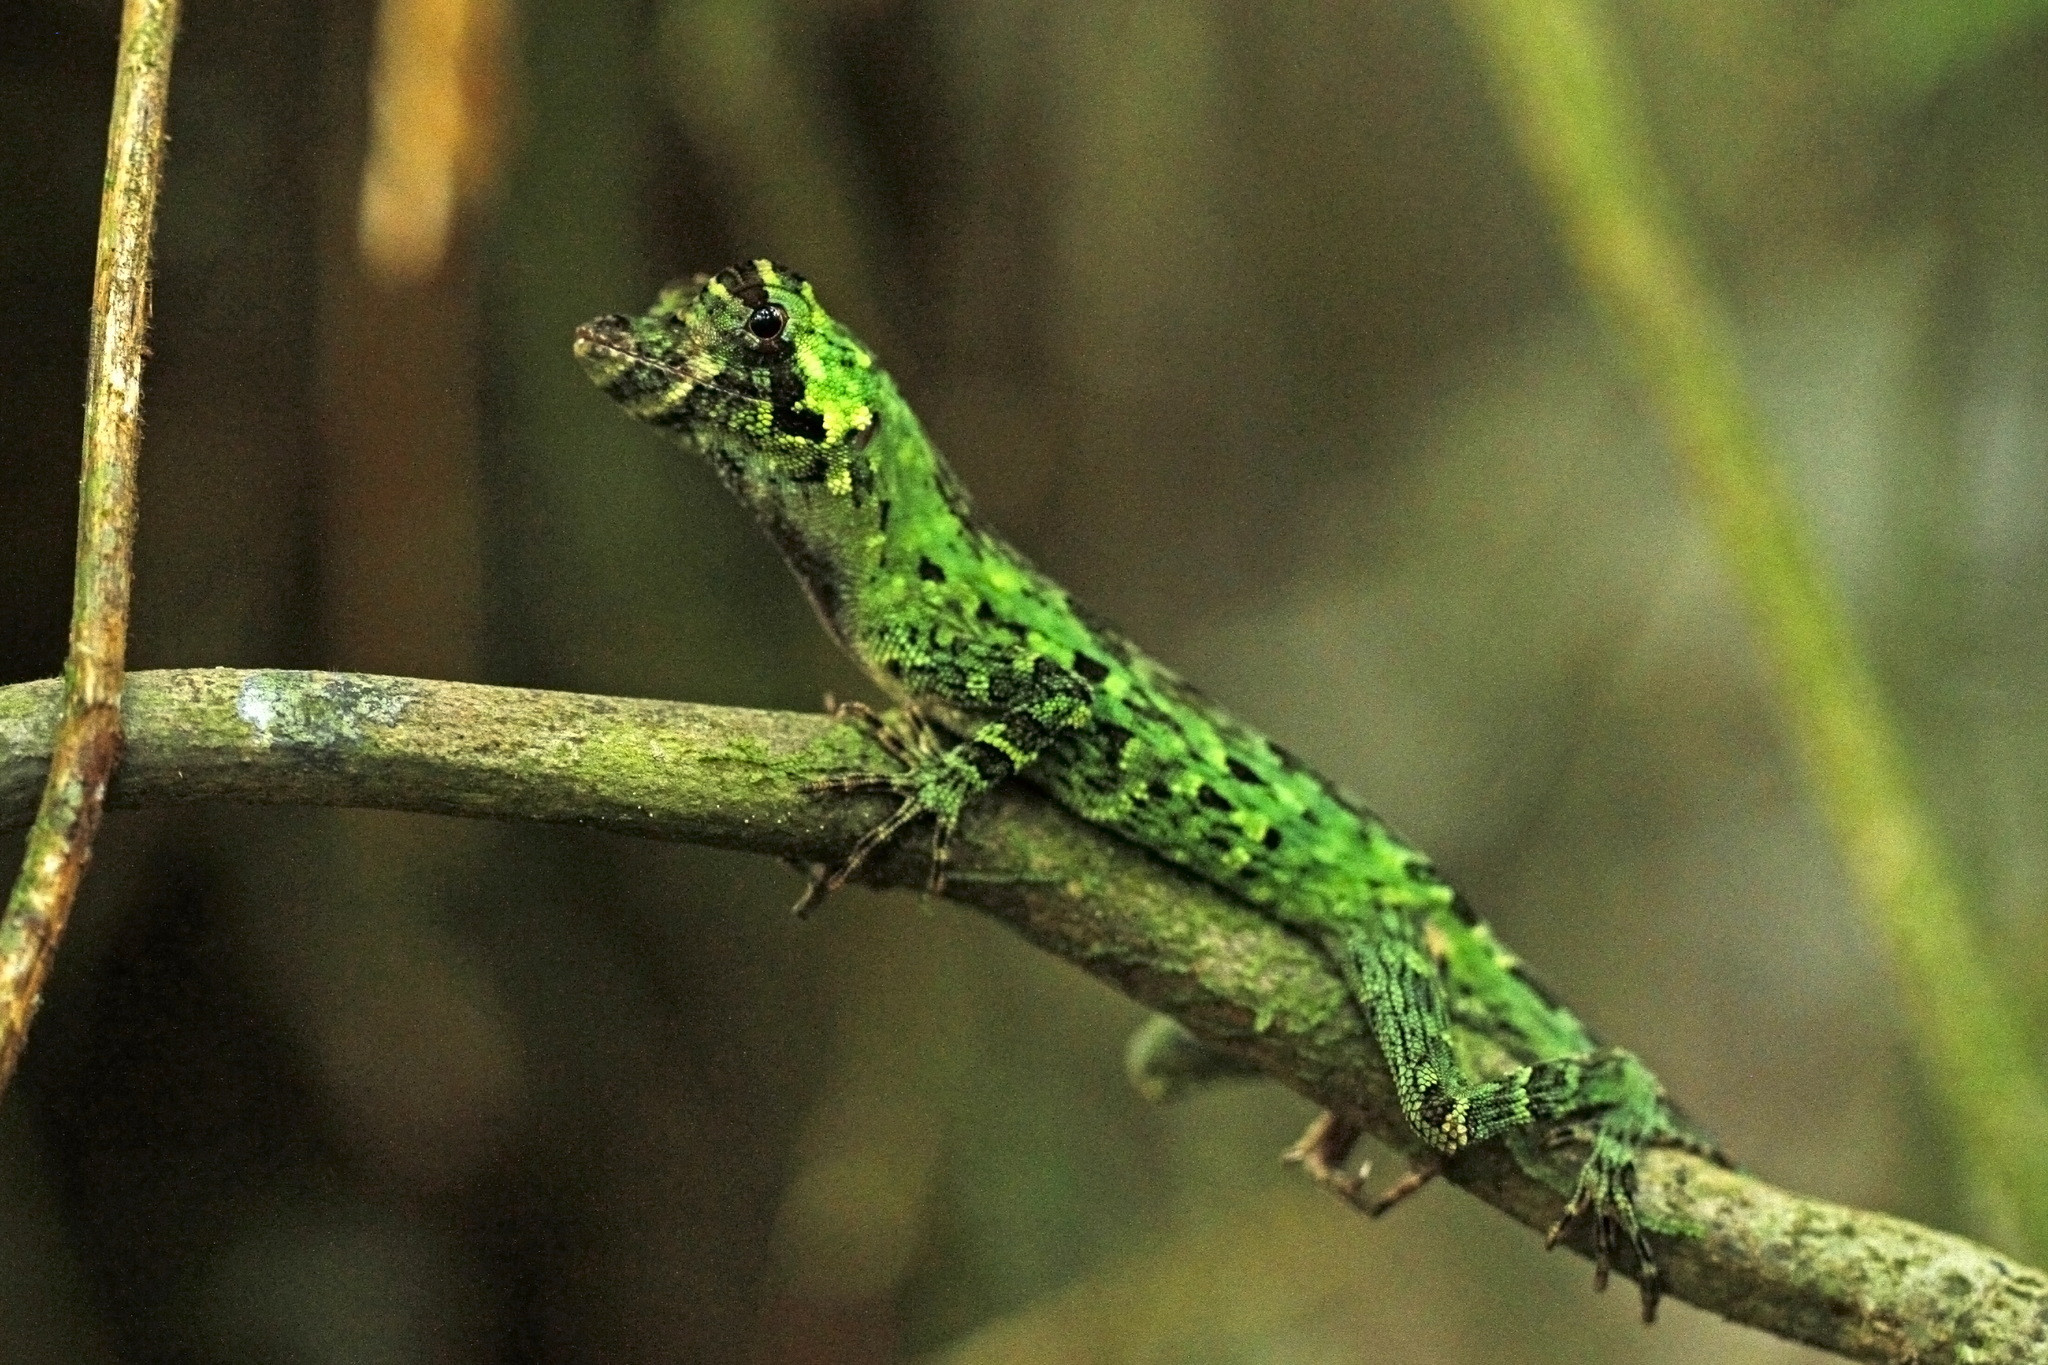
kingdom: Animalia
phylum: Chordata
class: Squamata
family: Dactyloidae
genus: Anolis
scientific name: Anolis capito
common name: Bighead anole
